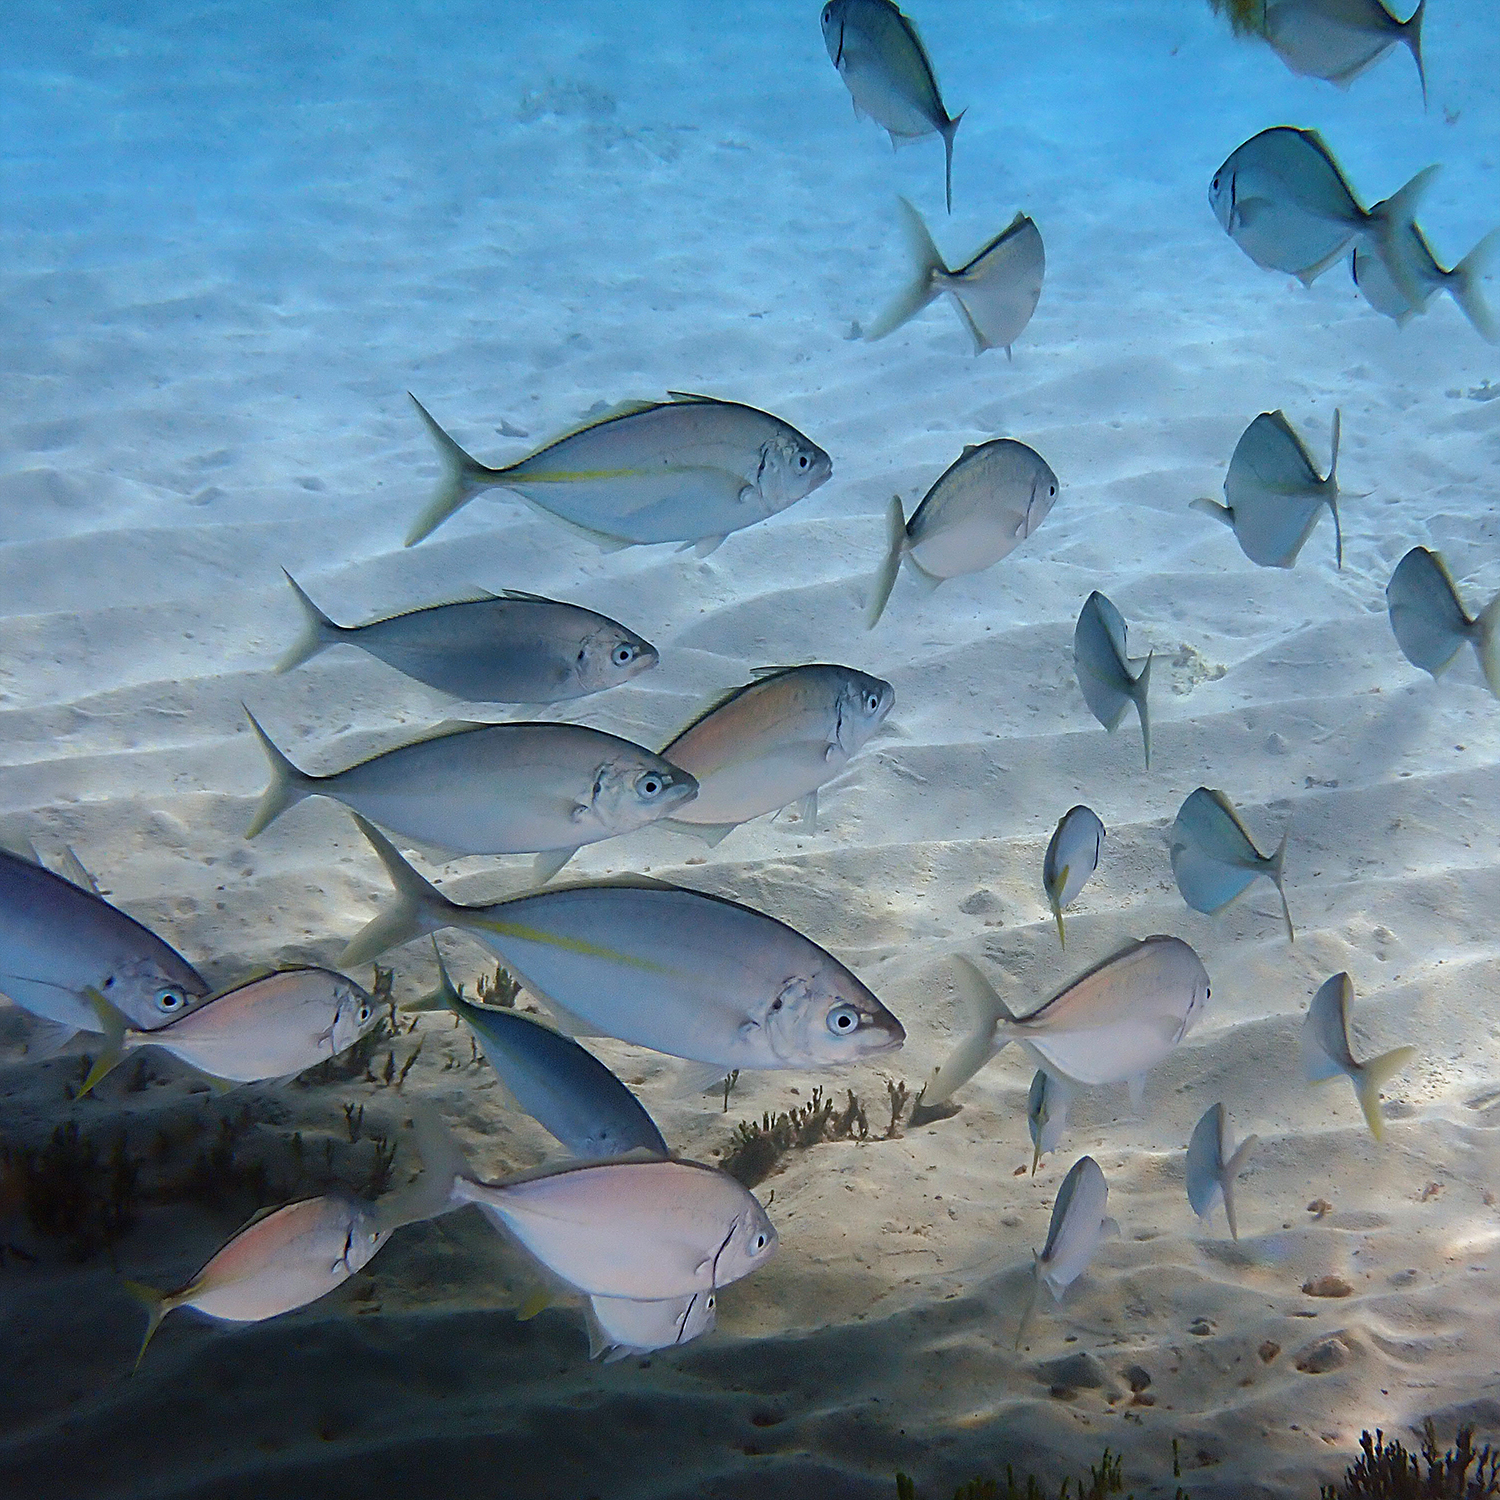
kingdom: Animalia
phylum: Chordata
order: Perciformes
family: Carangidae
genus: Pseudocaranx
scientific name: Pseudocaranx dentex
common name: White trevally
